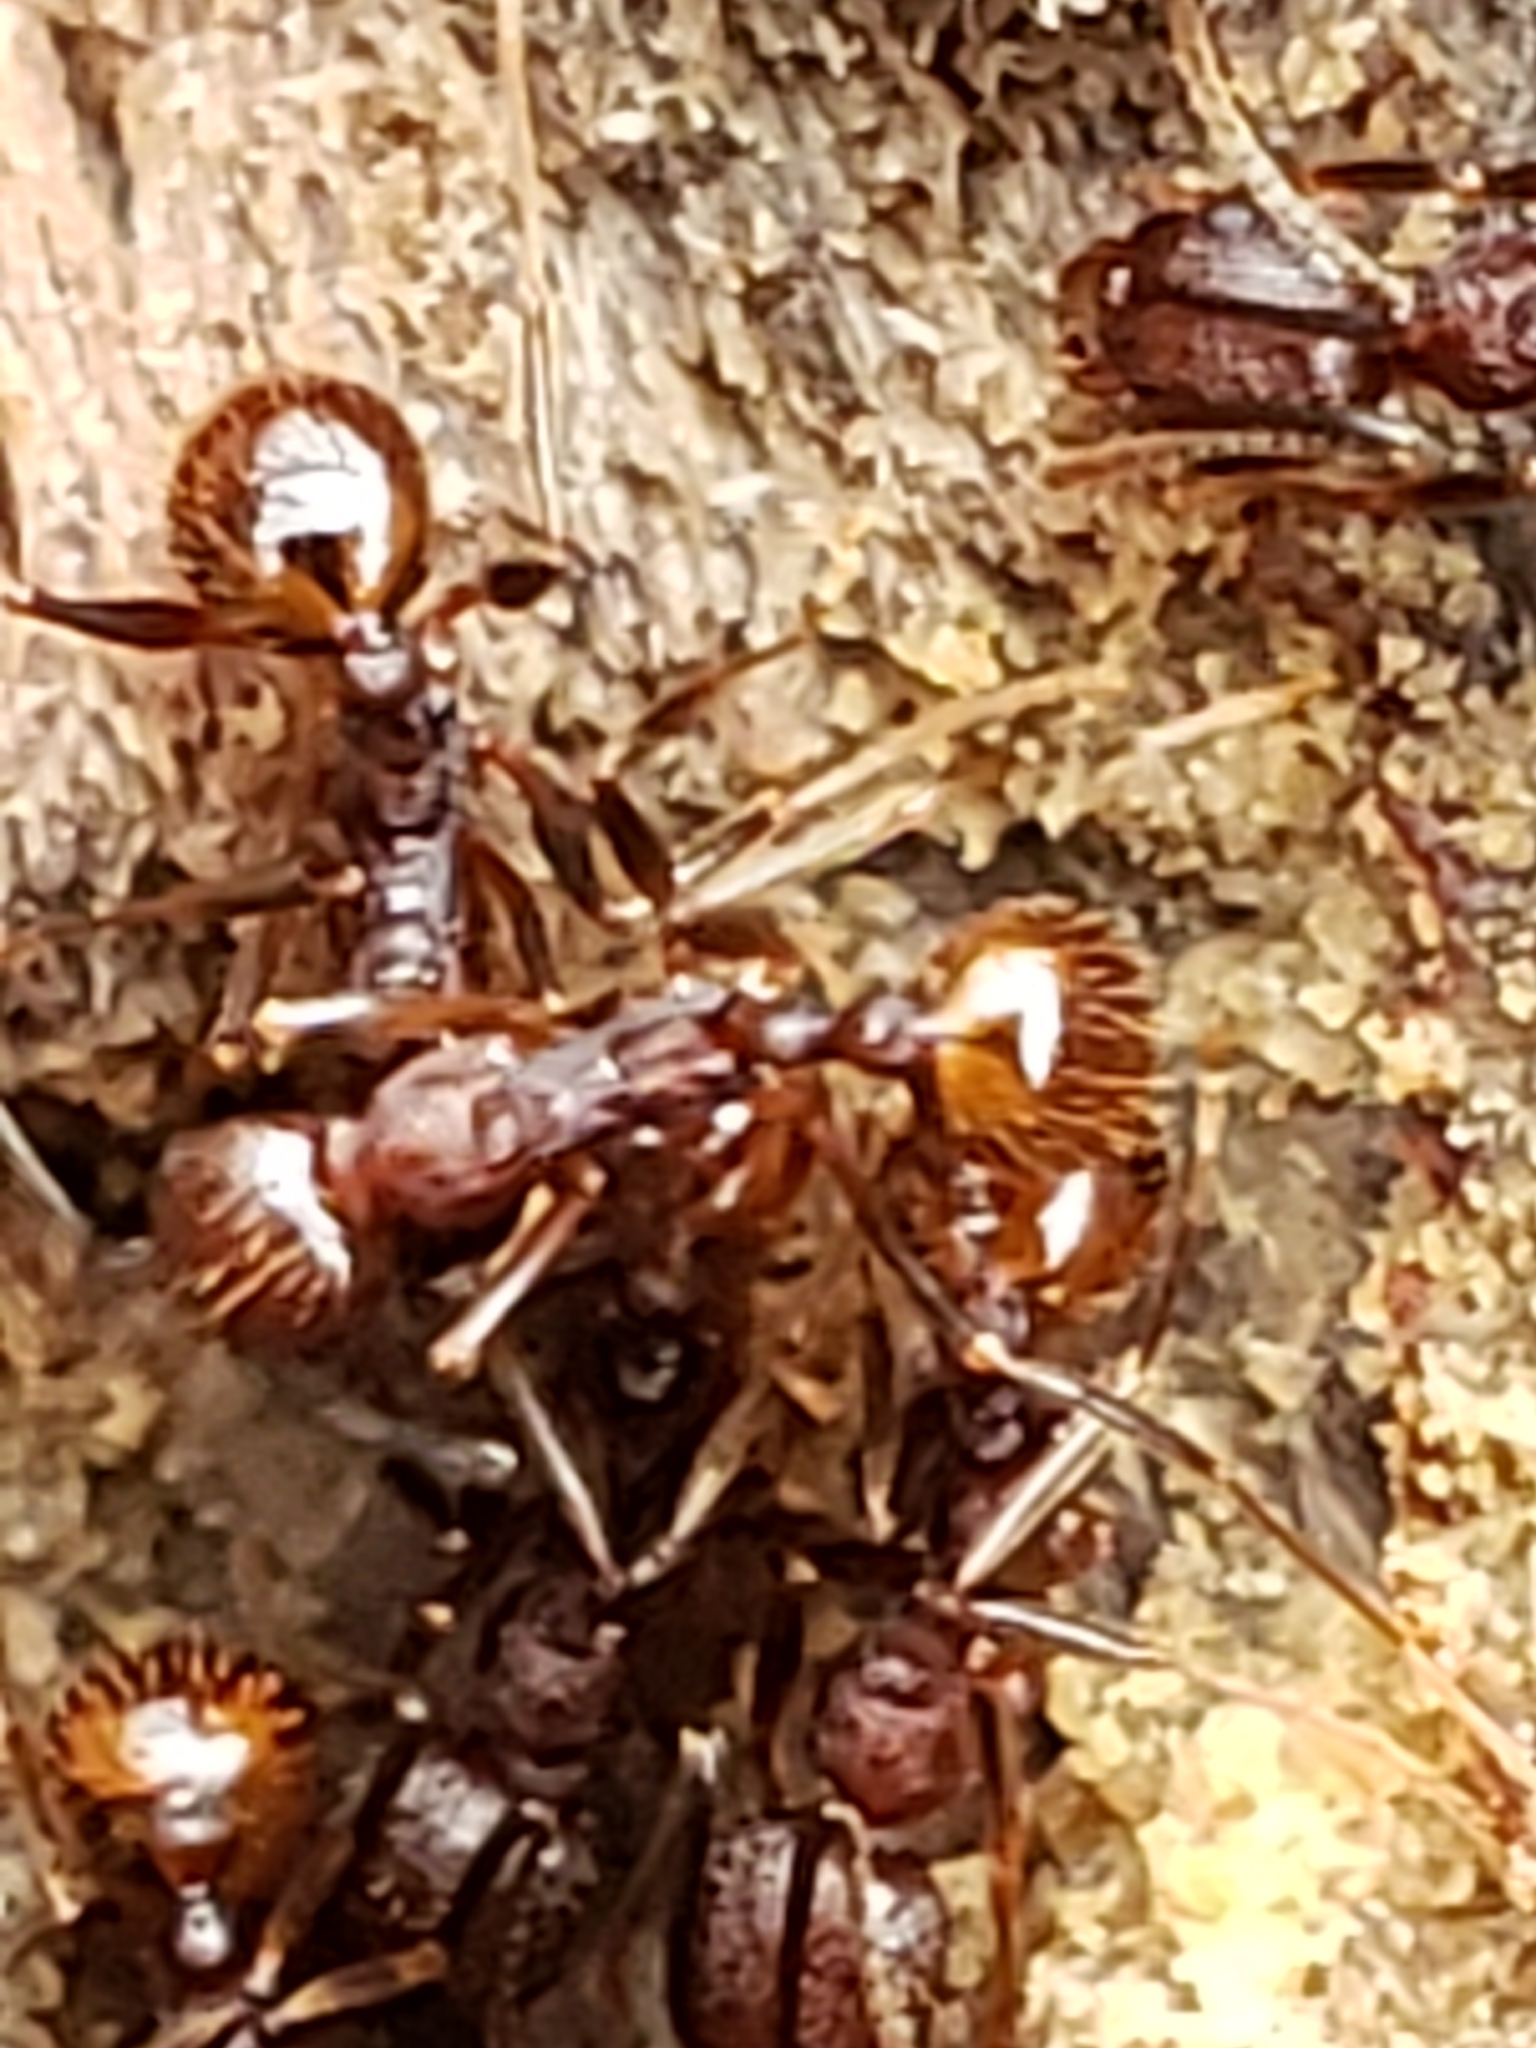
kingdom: Animalia
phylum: Arthropoda
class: Insecta
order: Hymenoptera
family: Formicidae
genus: Aphaenogaster
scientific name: Aphaenogaster fulva
